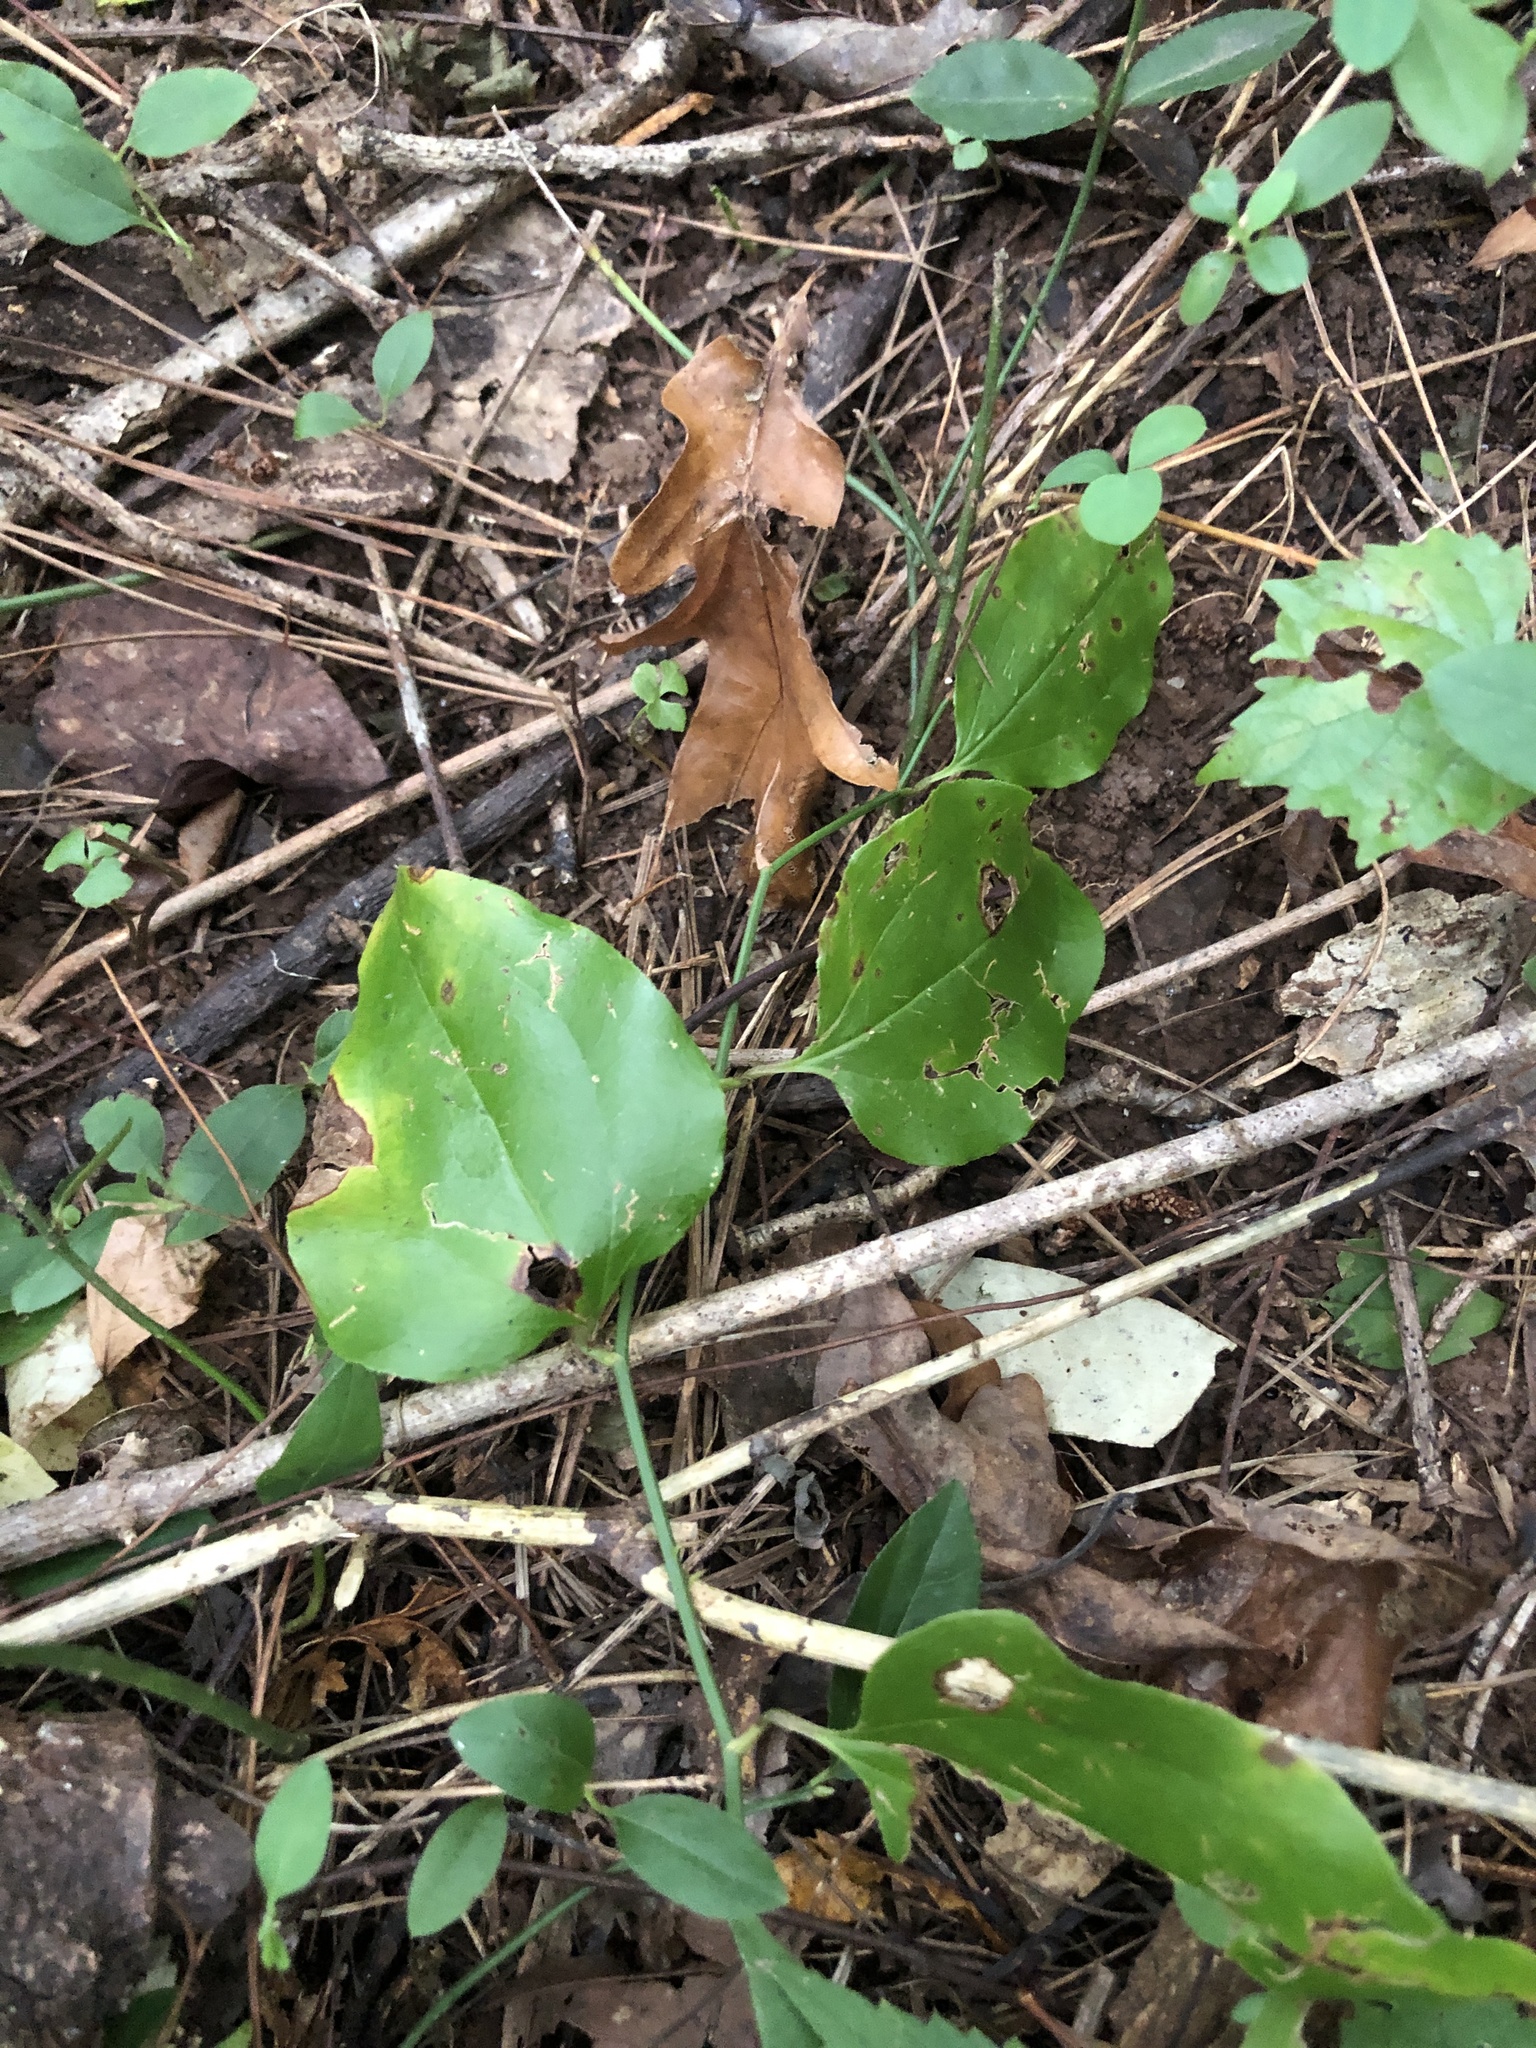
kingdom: Plantae
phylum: Tracheophyta
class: Liliopsida
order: Liliales
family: Smilacaceae
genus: Smilax
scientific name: Smilax rotundifolia
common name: Bullbriar
